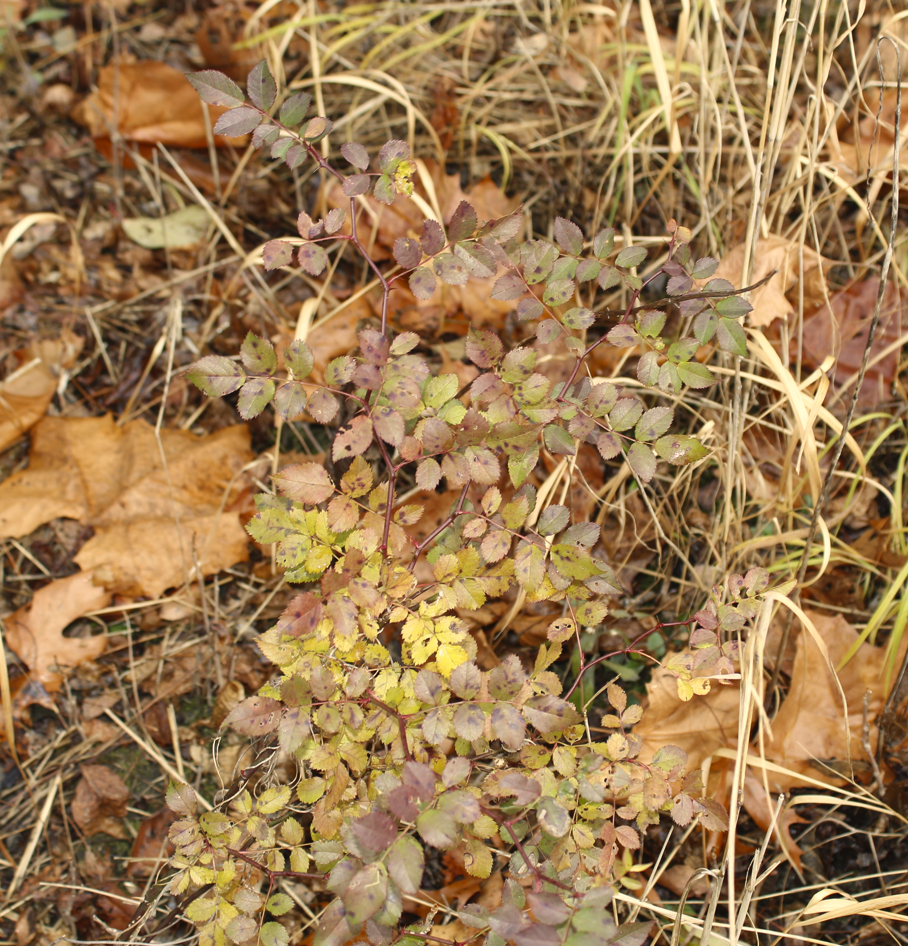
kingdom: Plantae
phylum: Tracheophyta
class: Magnoliopsida
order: Rosales
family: Rosaceae
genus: Rosa
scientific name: Rosa multiflora
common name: Multiflora rose
